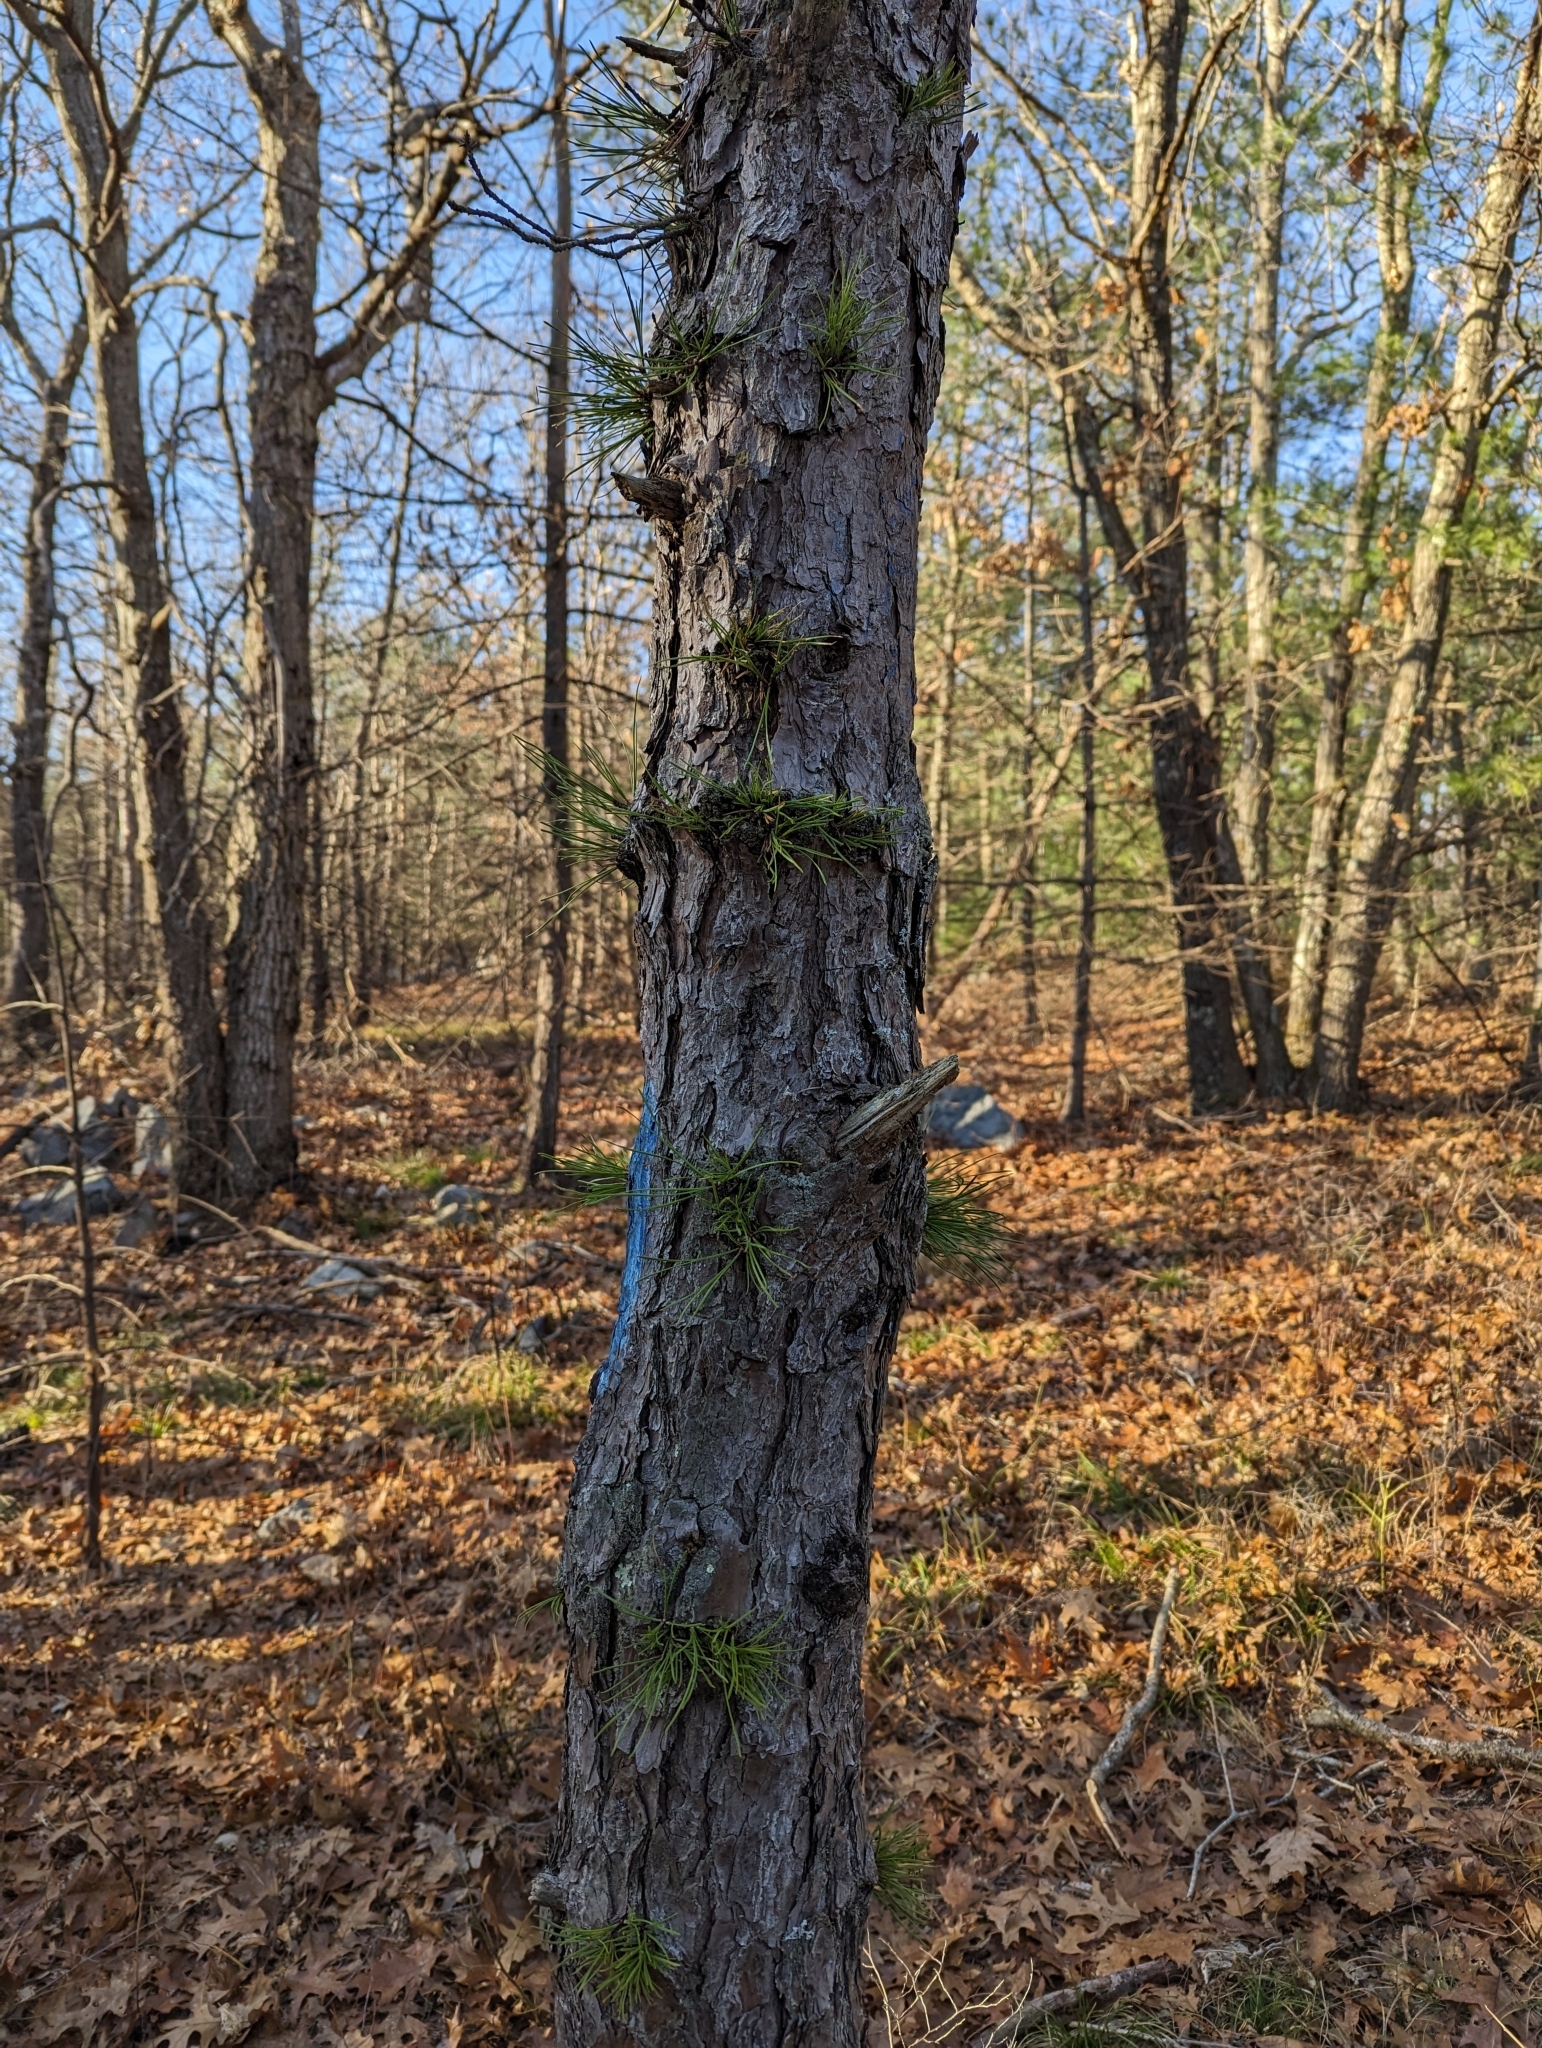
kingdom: Plantae
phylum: Tracheophyta
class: Pinopsida
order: Pinales
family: Pinaceae
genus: Pinus
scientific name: Pinus rigida
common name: Pitch pine
